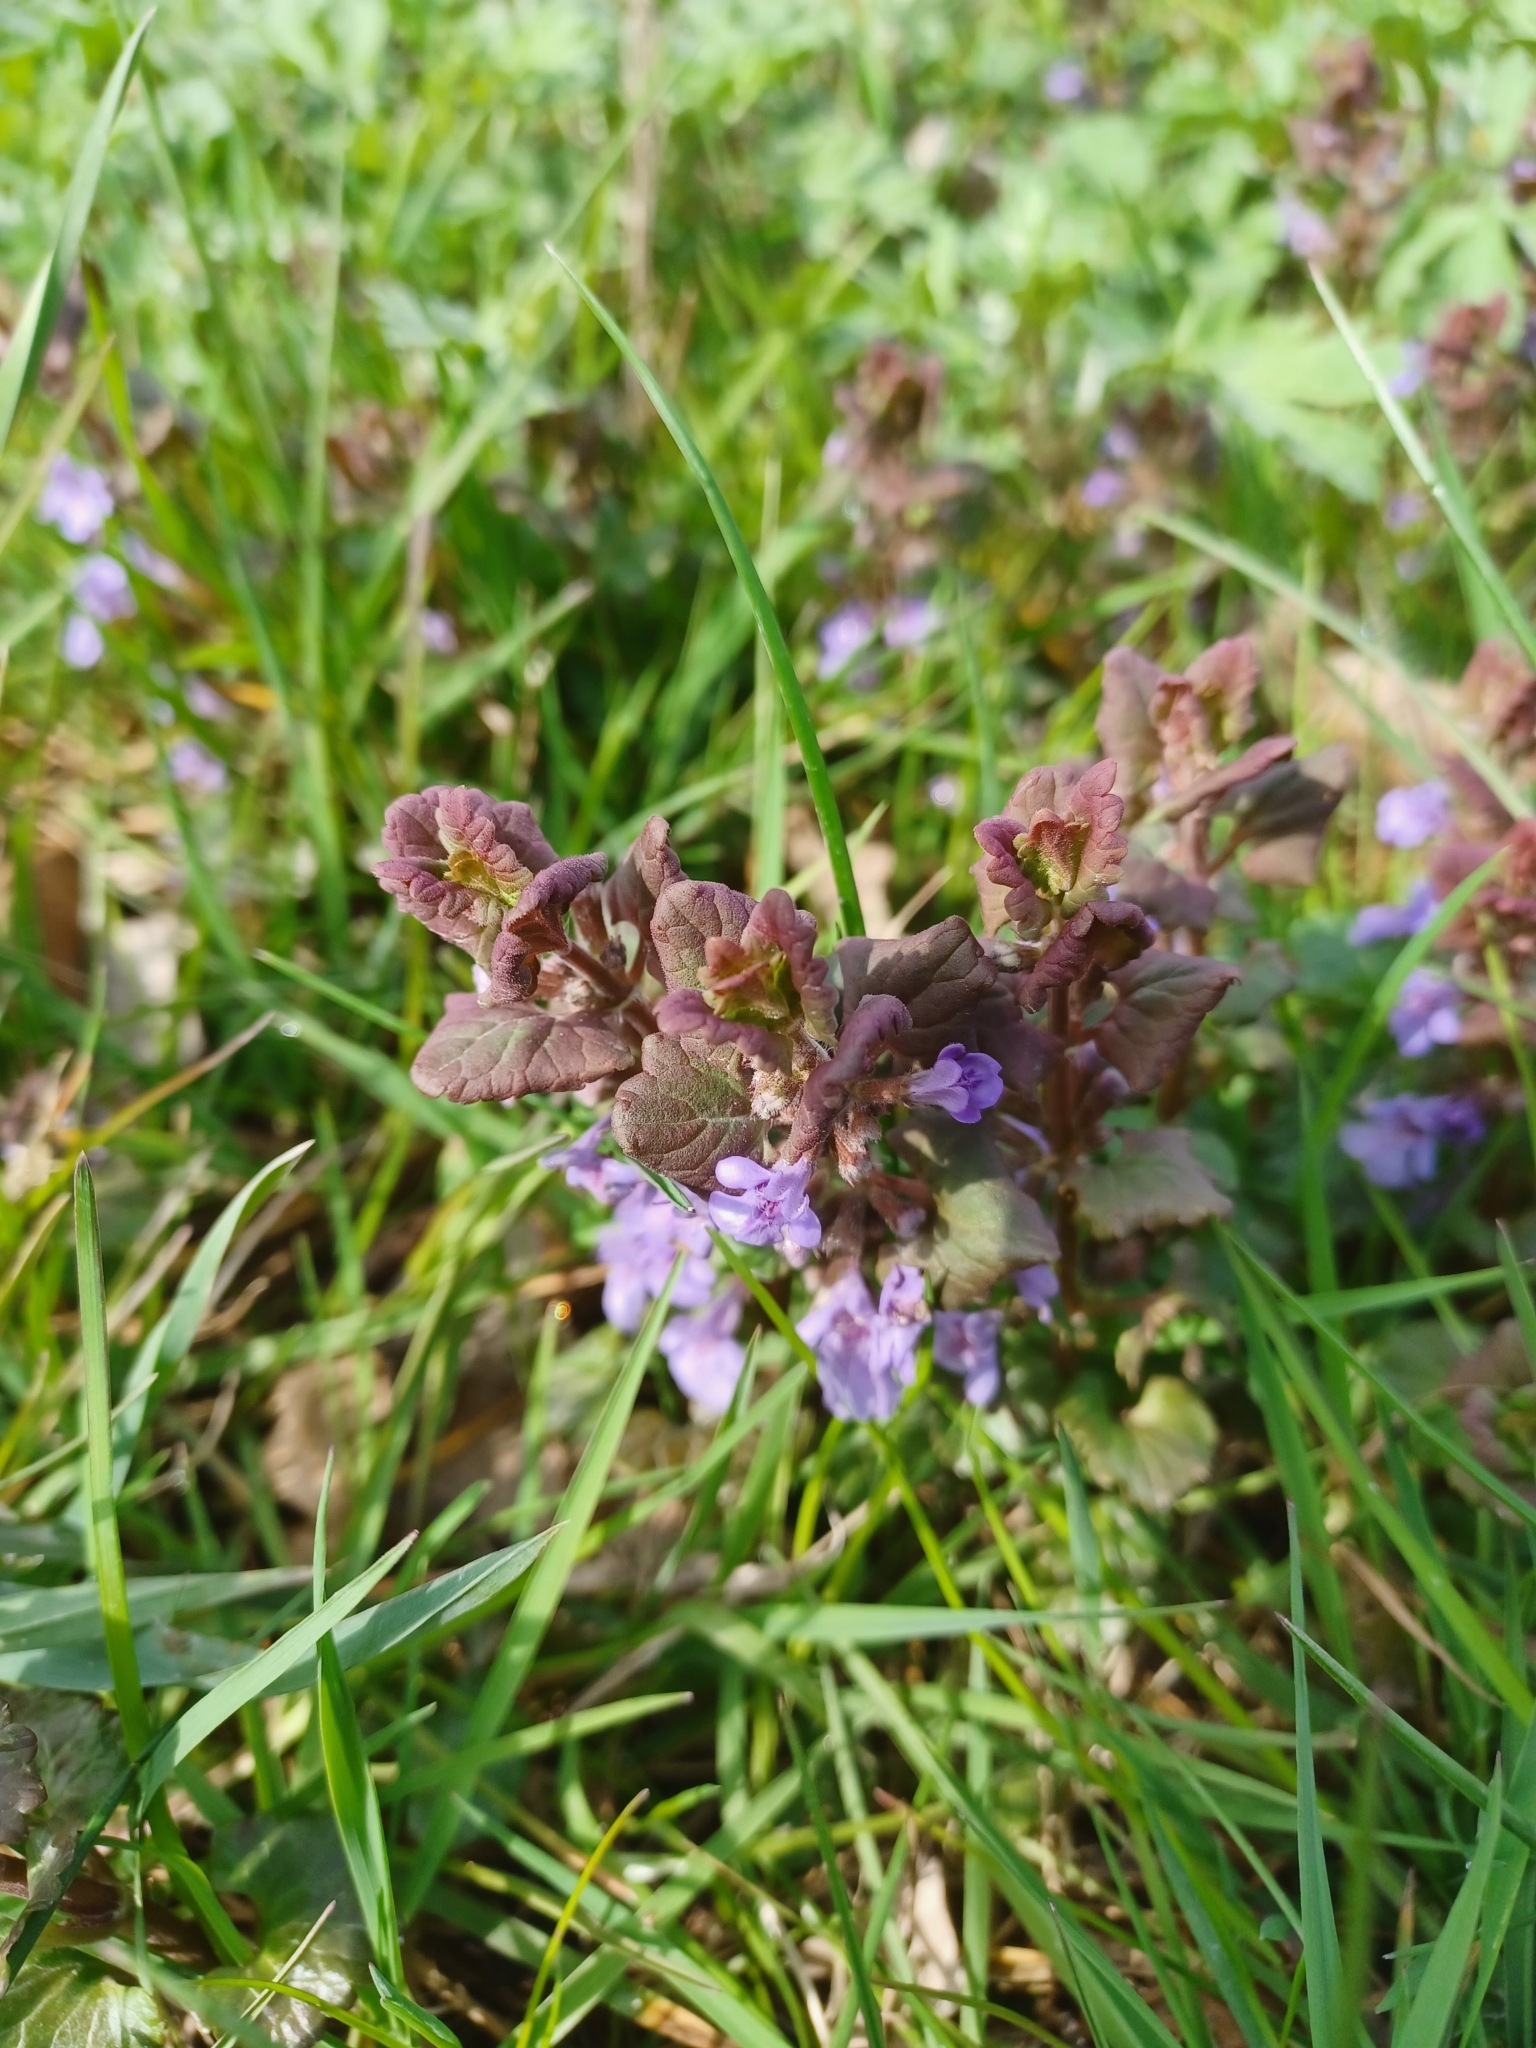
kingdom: Plantae
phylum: Tracheophyta
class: Magnoliopsida
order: Lamiales
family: Lamiaceae
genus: Glechoma
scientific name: Glechoma hederacea
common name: Ground ivy
